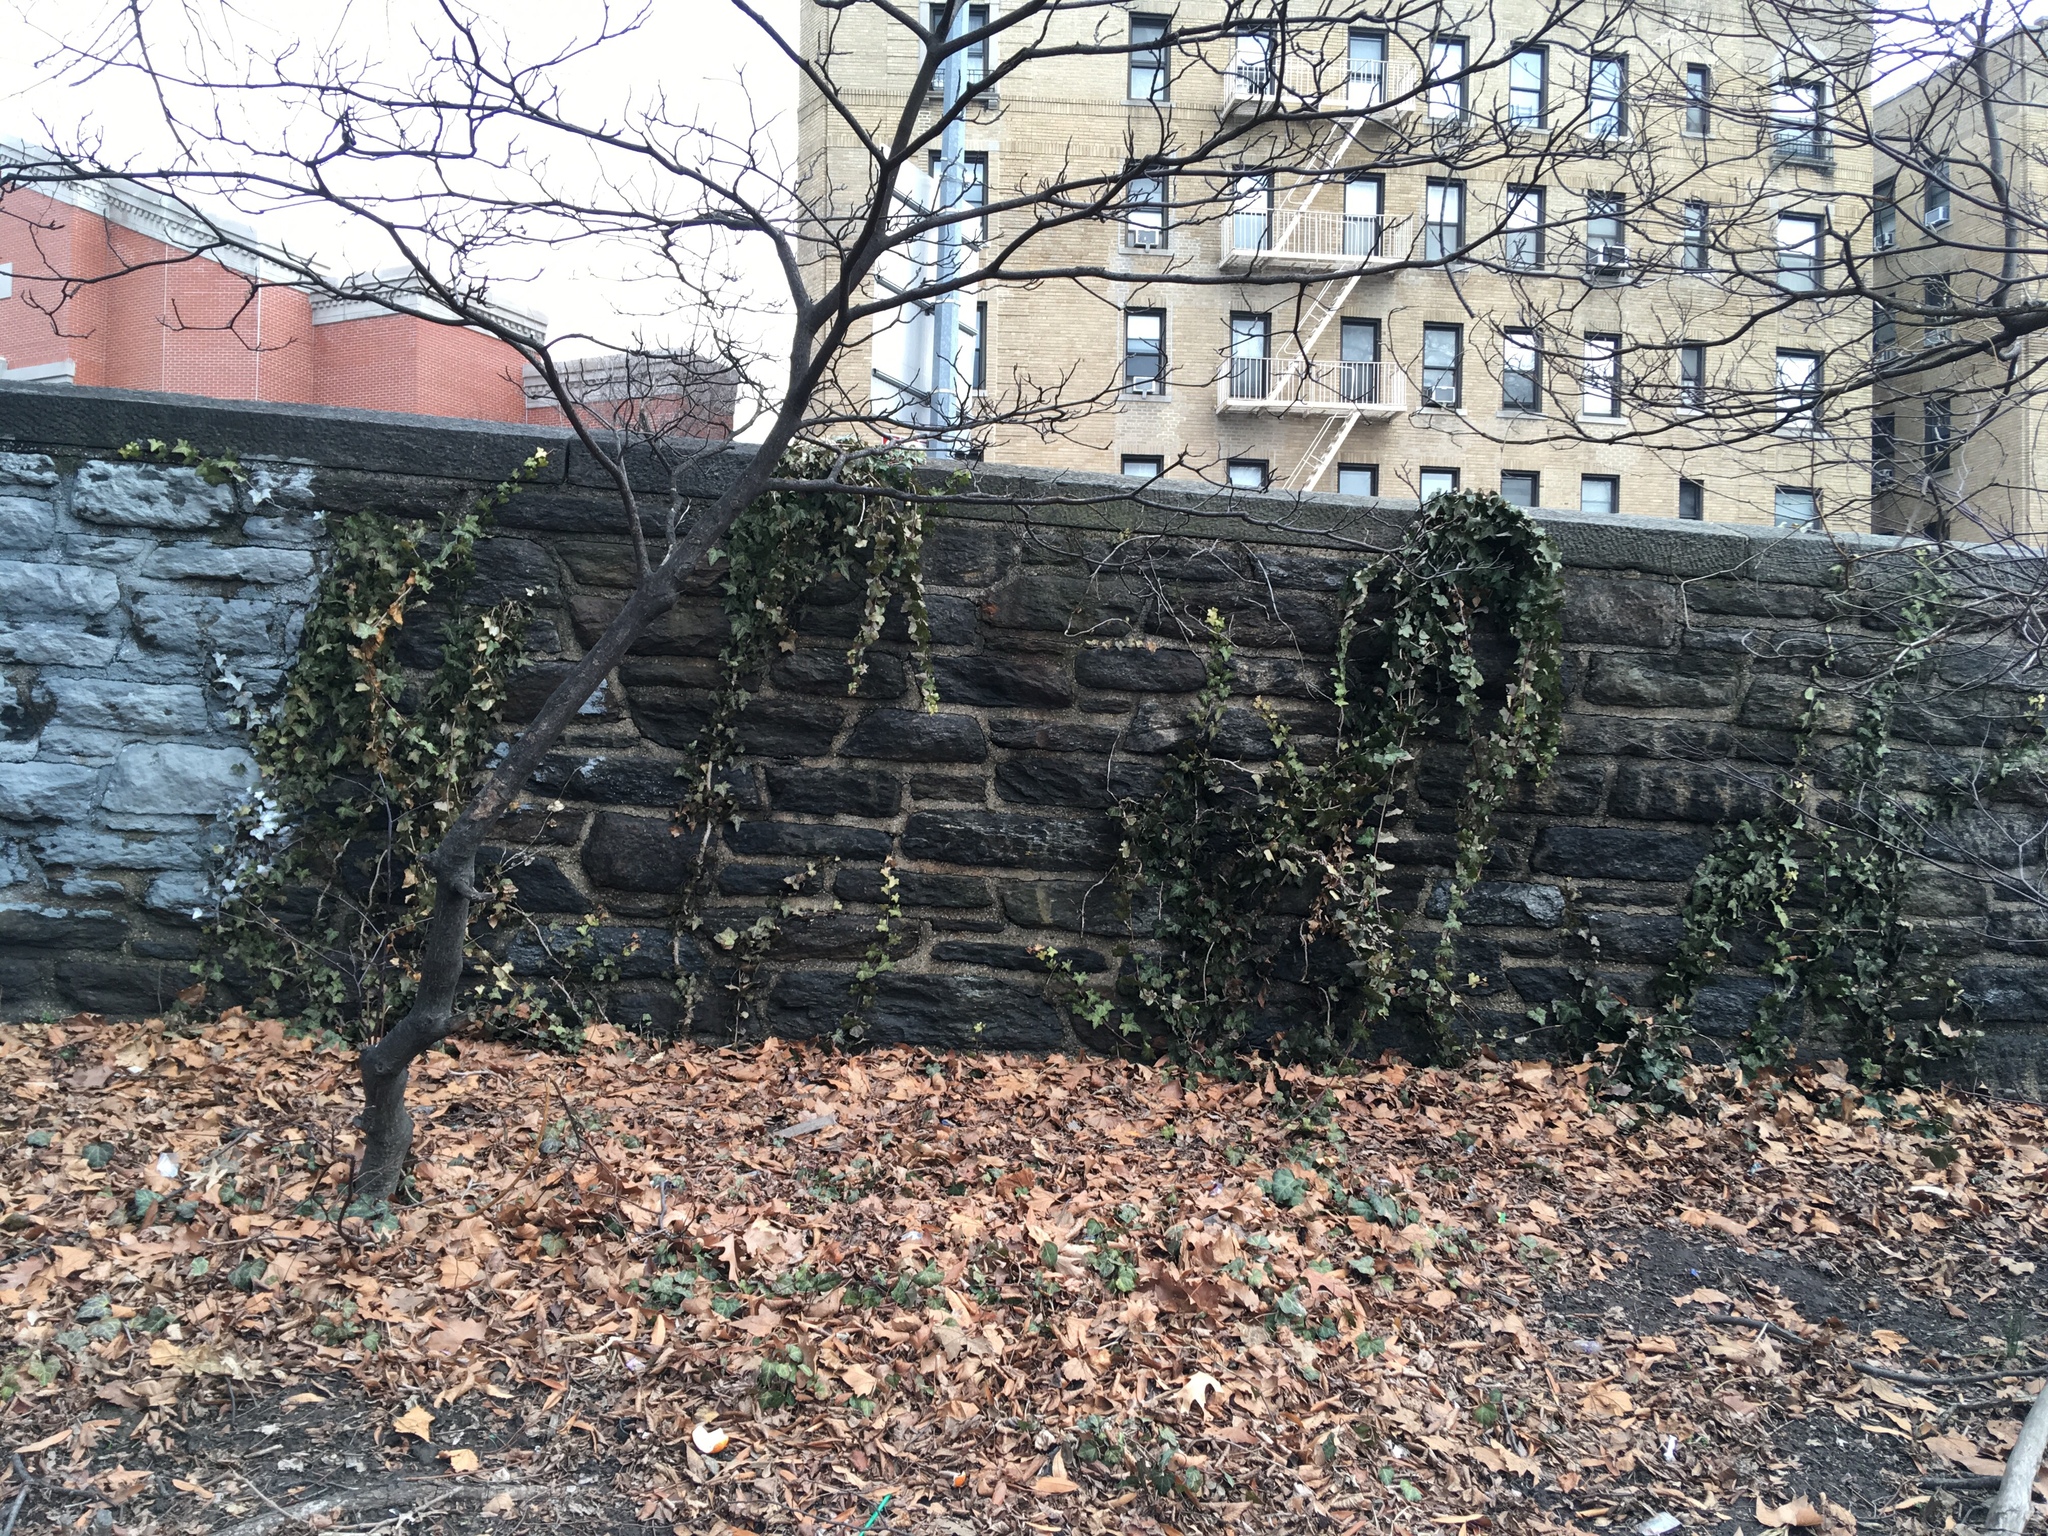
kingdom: Plantae
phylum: Tracheophyta
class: Magnoliopsida
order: Apiales
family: Araliaceae
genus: Hedera
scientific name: Hedera helix
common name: Ivy
